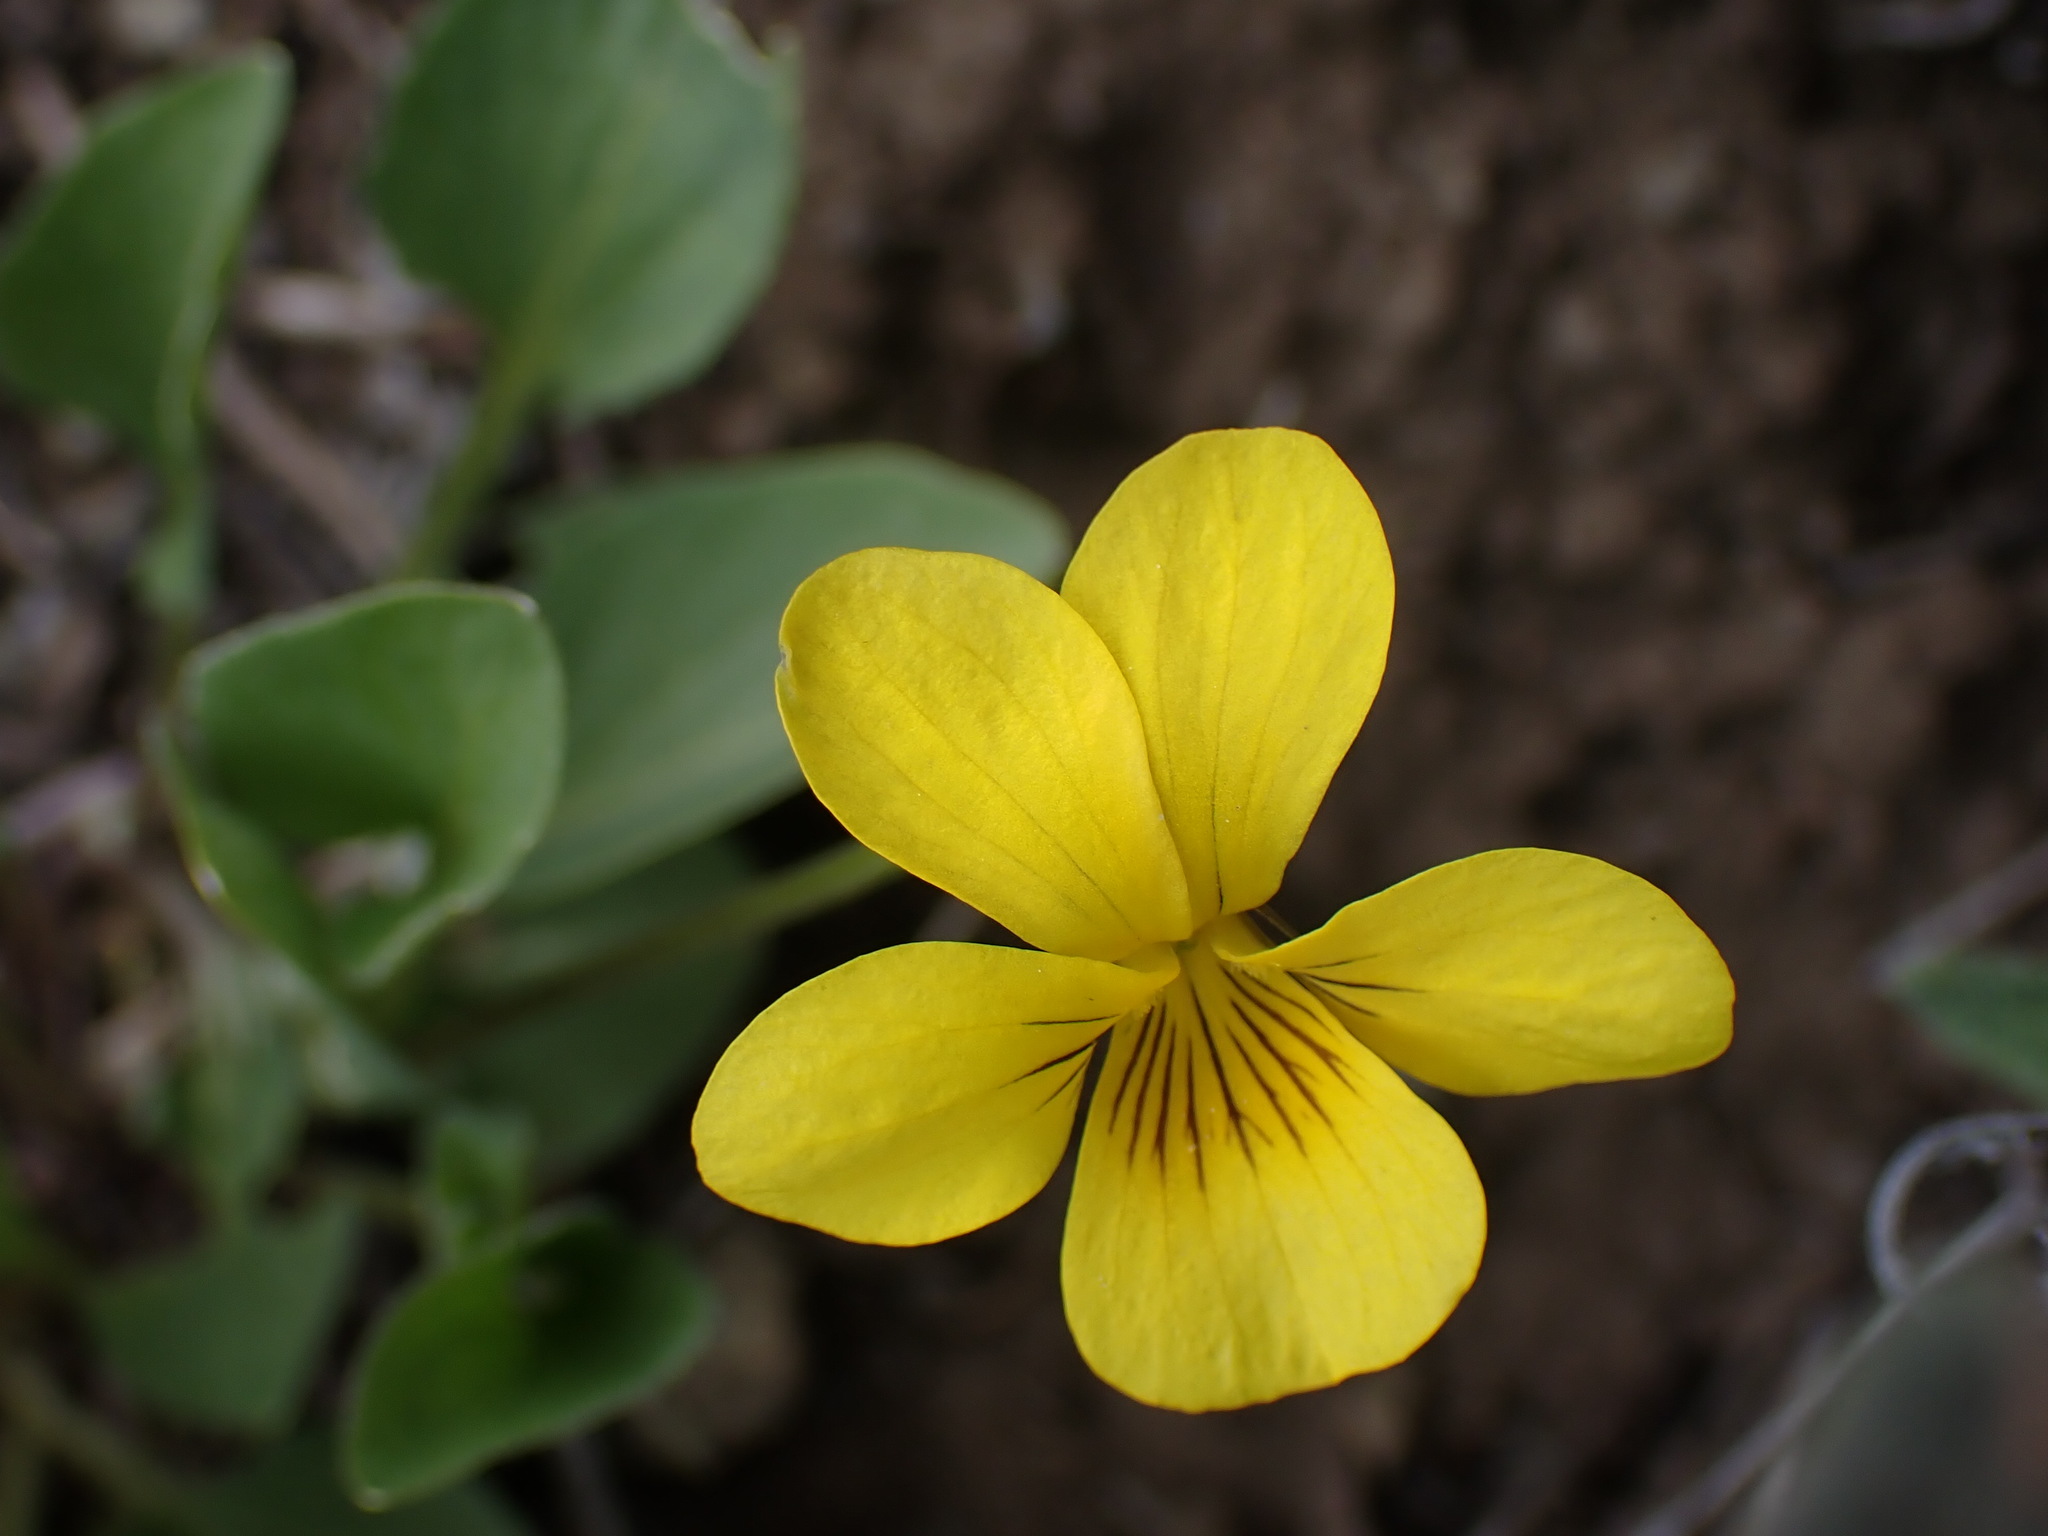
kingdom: Plantae
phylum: Tracheophyta
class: Magnoliopsida
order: Malpighiales
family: Violaceae
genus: Viola
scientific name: Viola vallicola
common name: Valley violet
